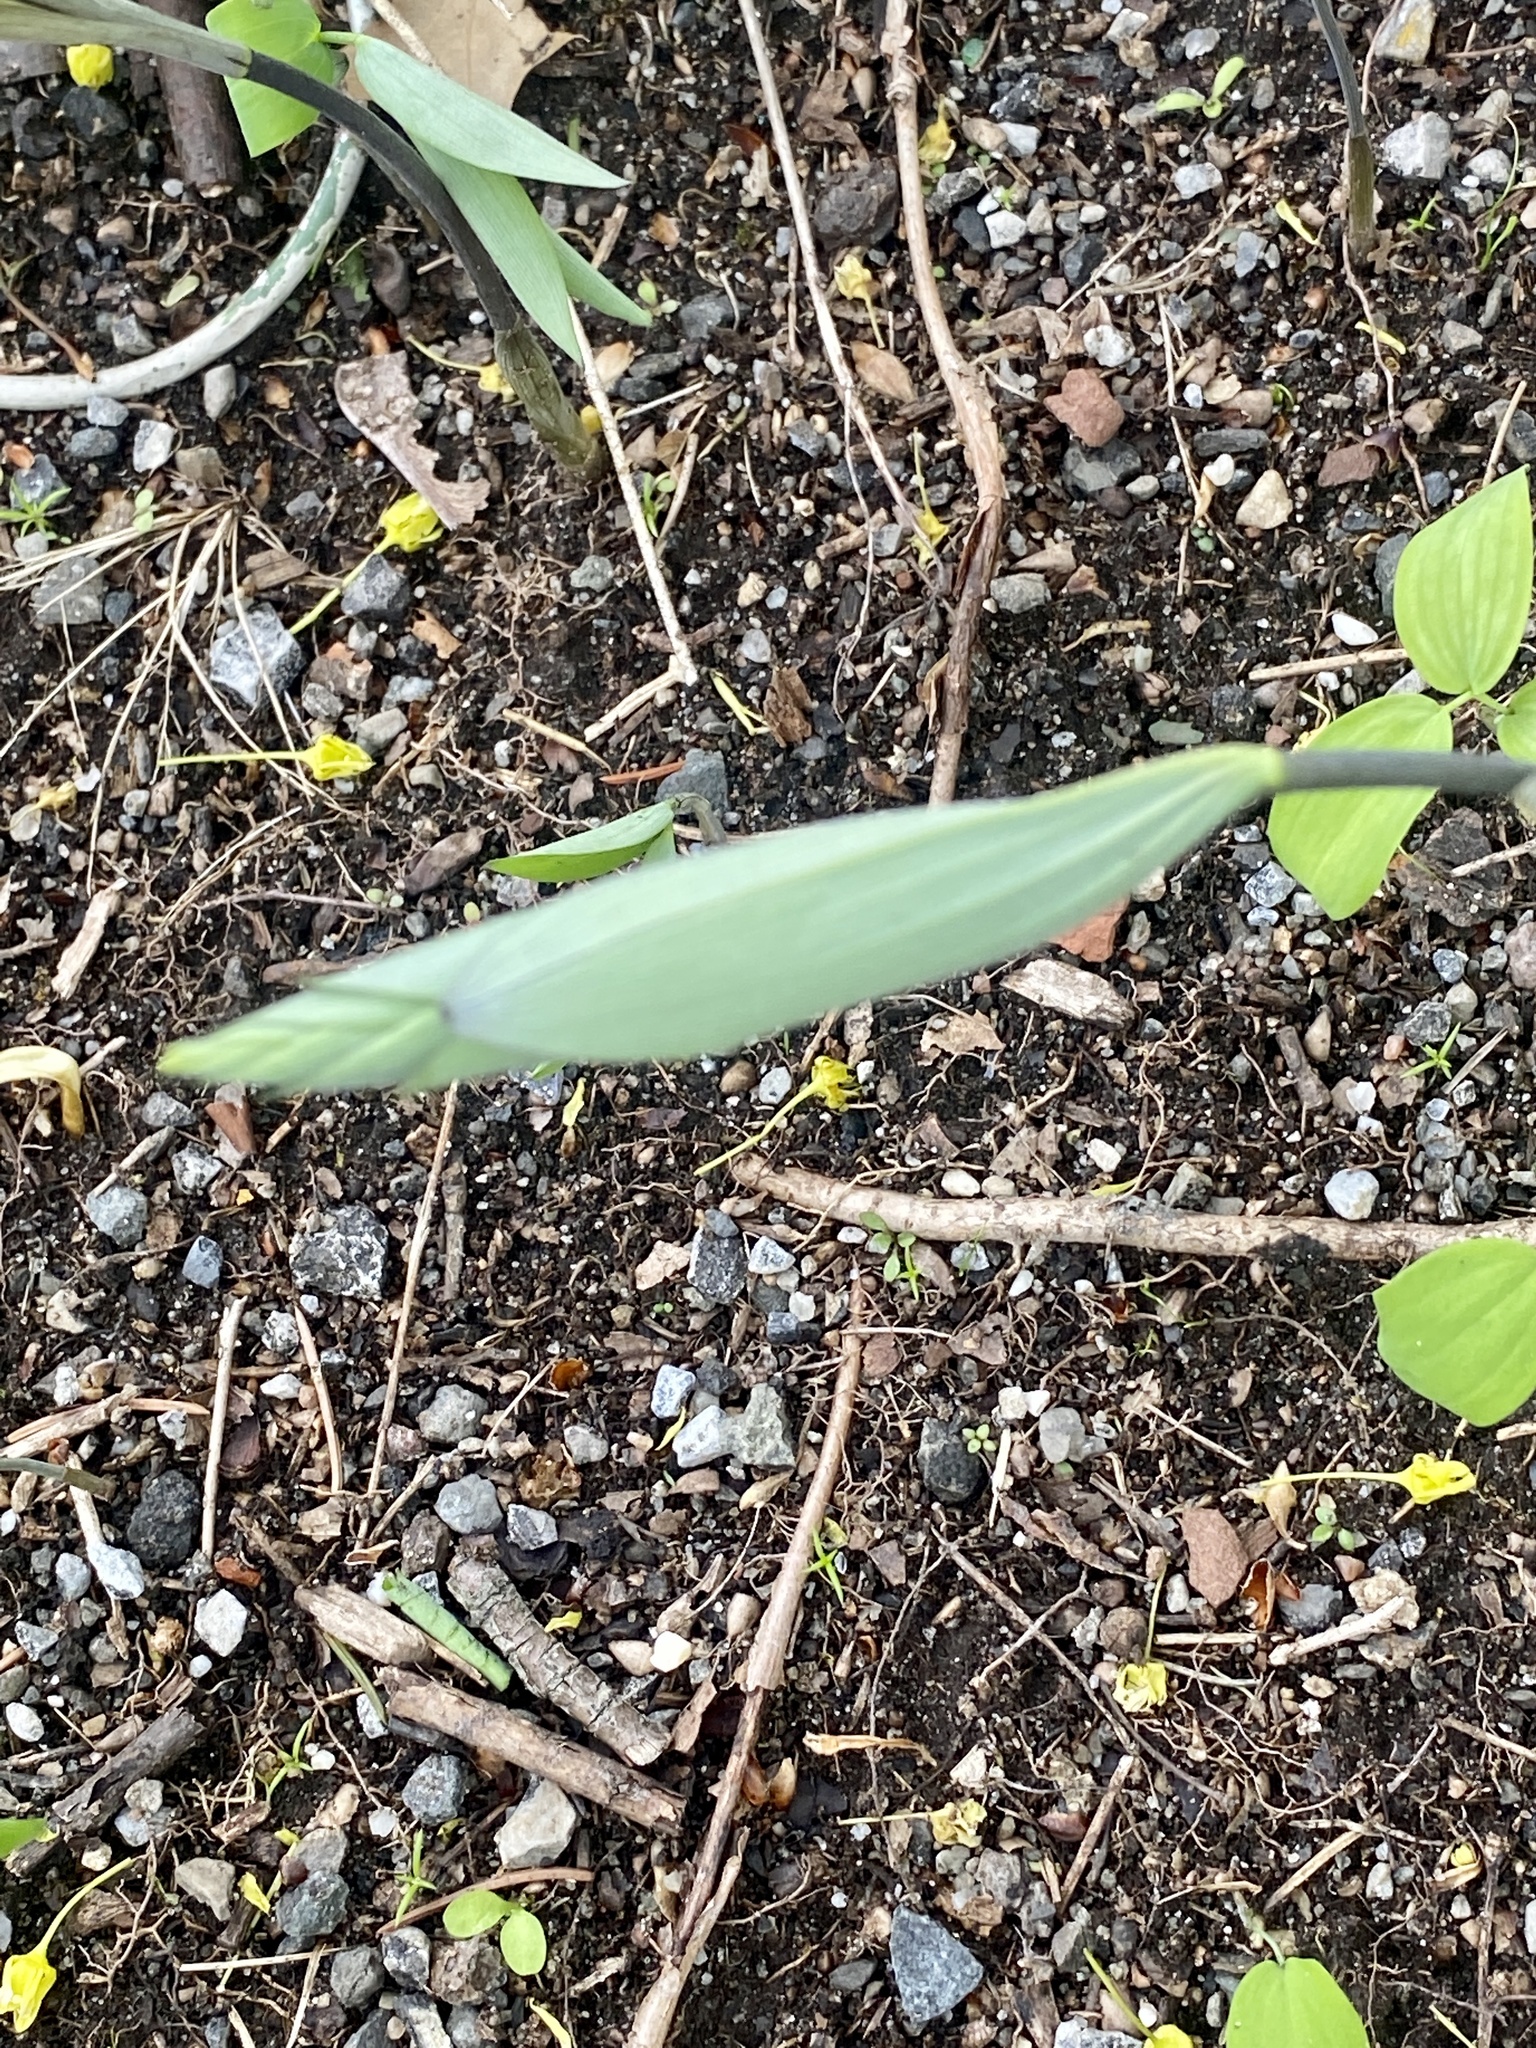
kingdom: Plantae
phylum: Tracheophyta
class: Liliopsida
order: Asparagales
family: Asparagaceae
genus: Polygonatum
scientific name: Polygonatum pubescens
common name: Downy solomon's seal
